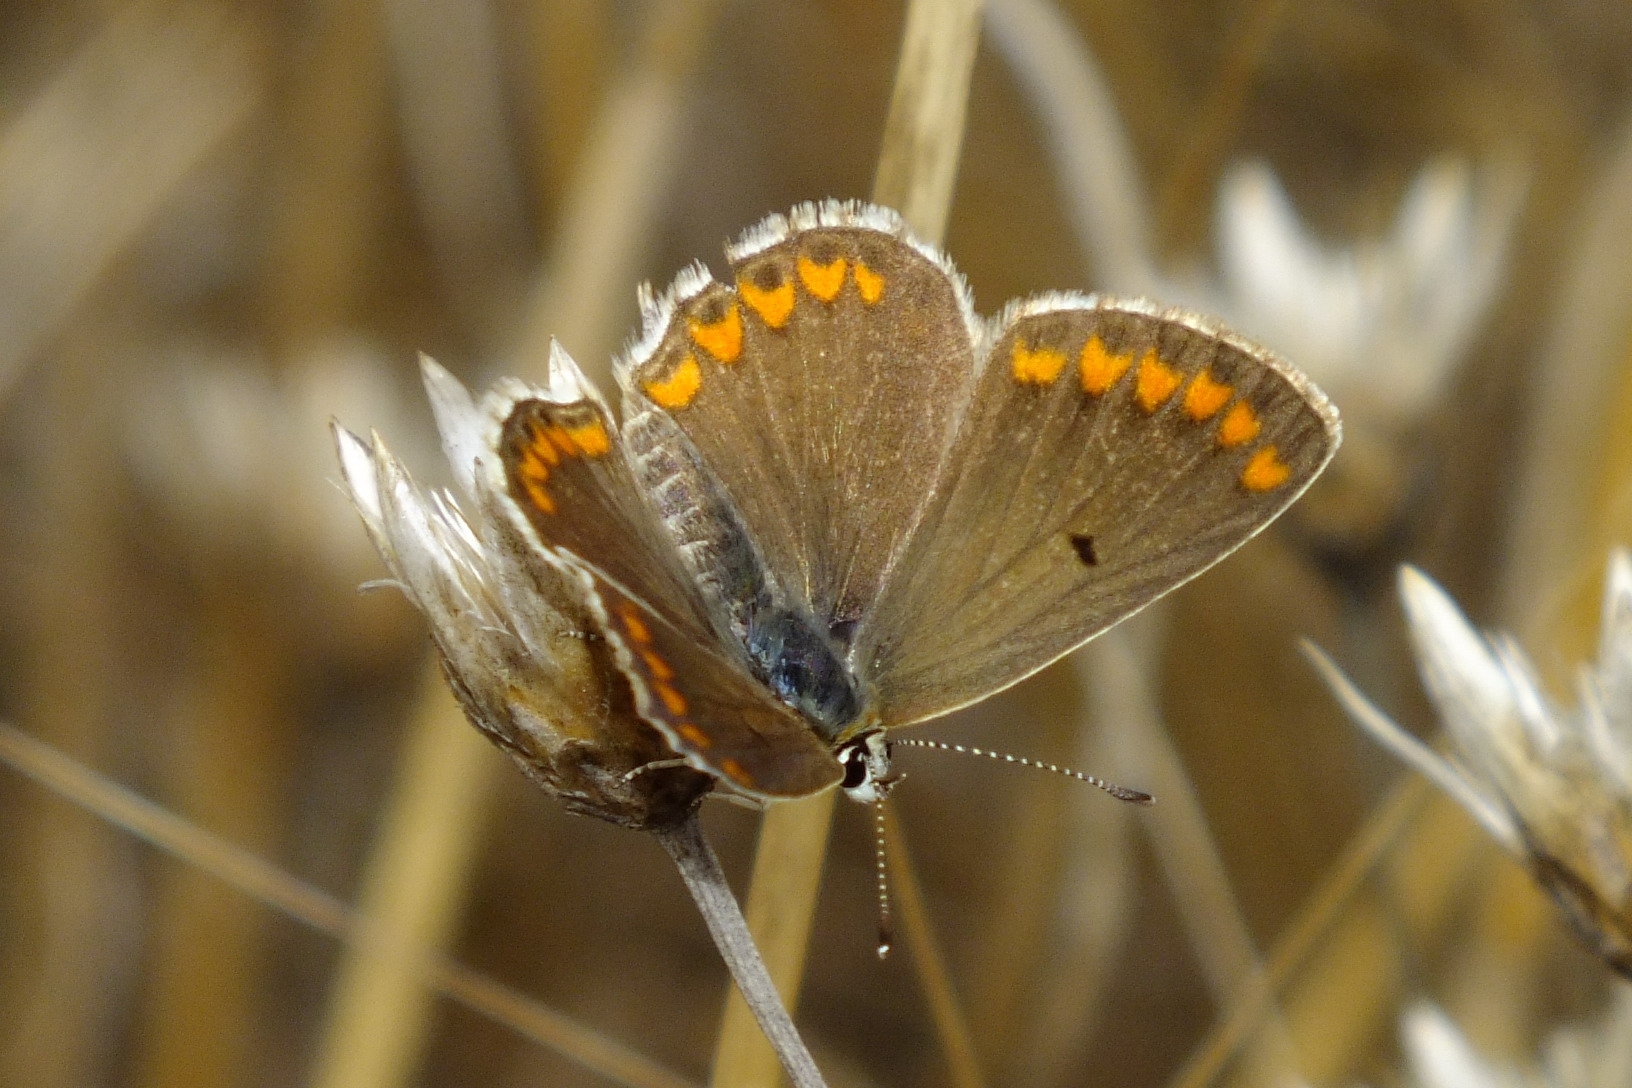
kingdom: Animalia
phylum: Arthropoda
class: Insecta
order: Lepidoptera
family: Lycaenidae
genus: Aricia
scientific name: Aricia agestis
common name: Brown argus
